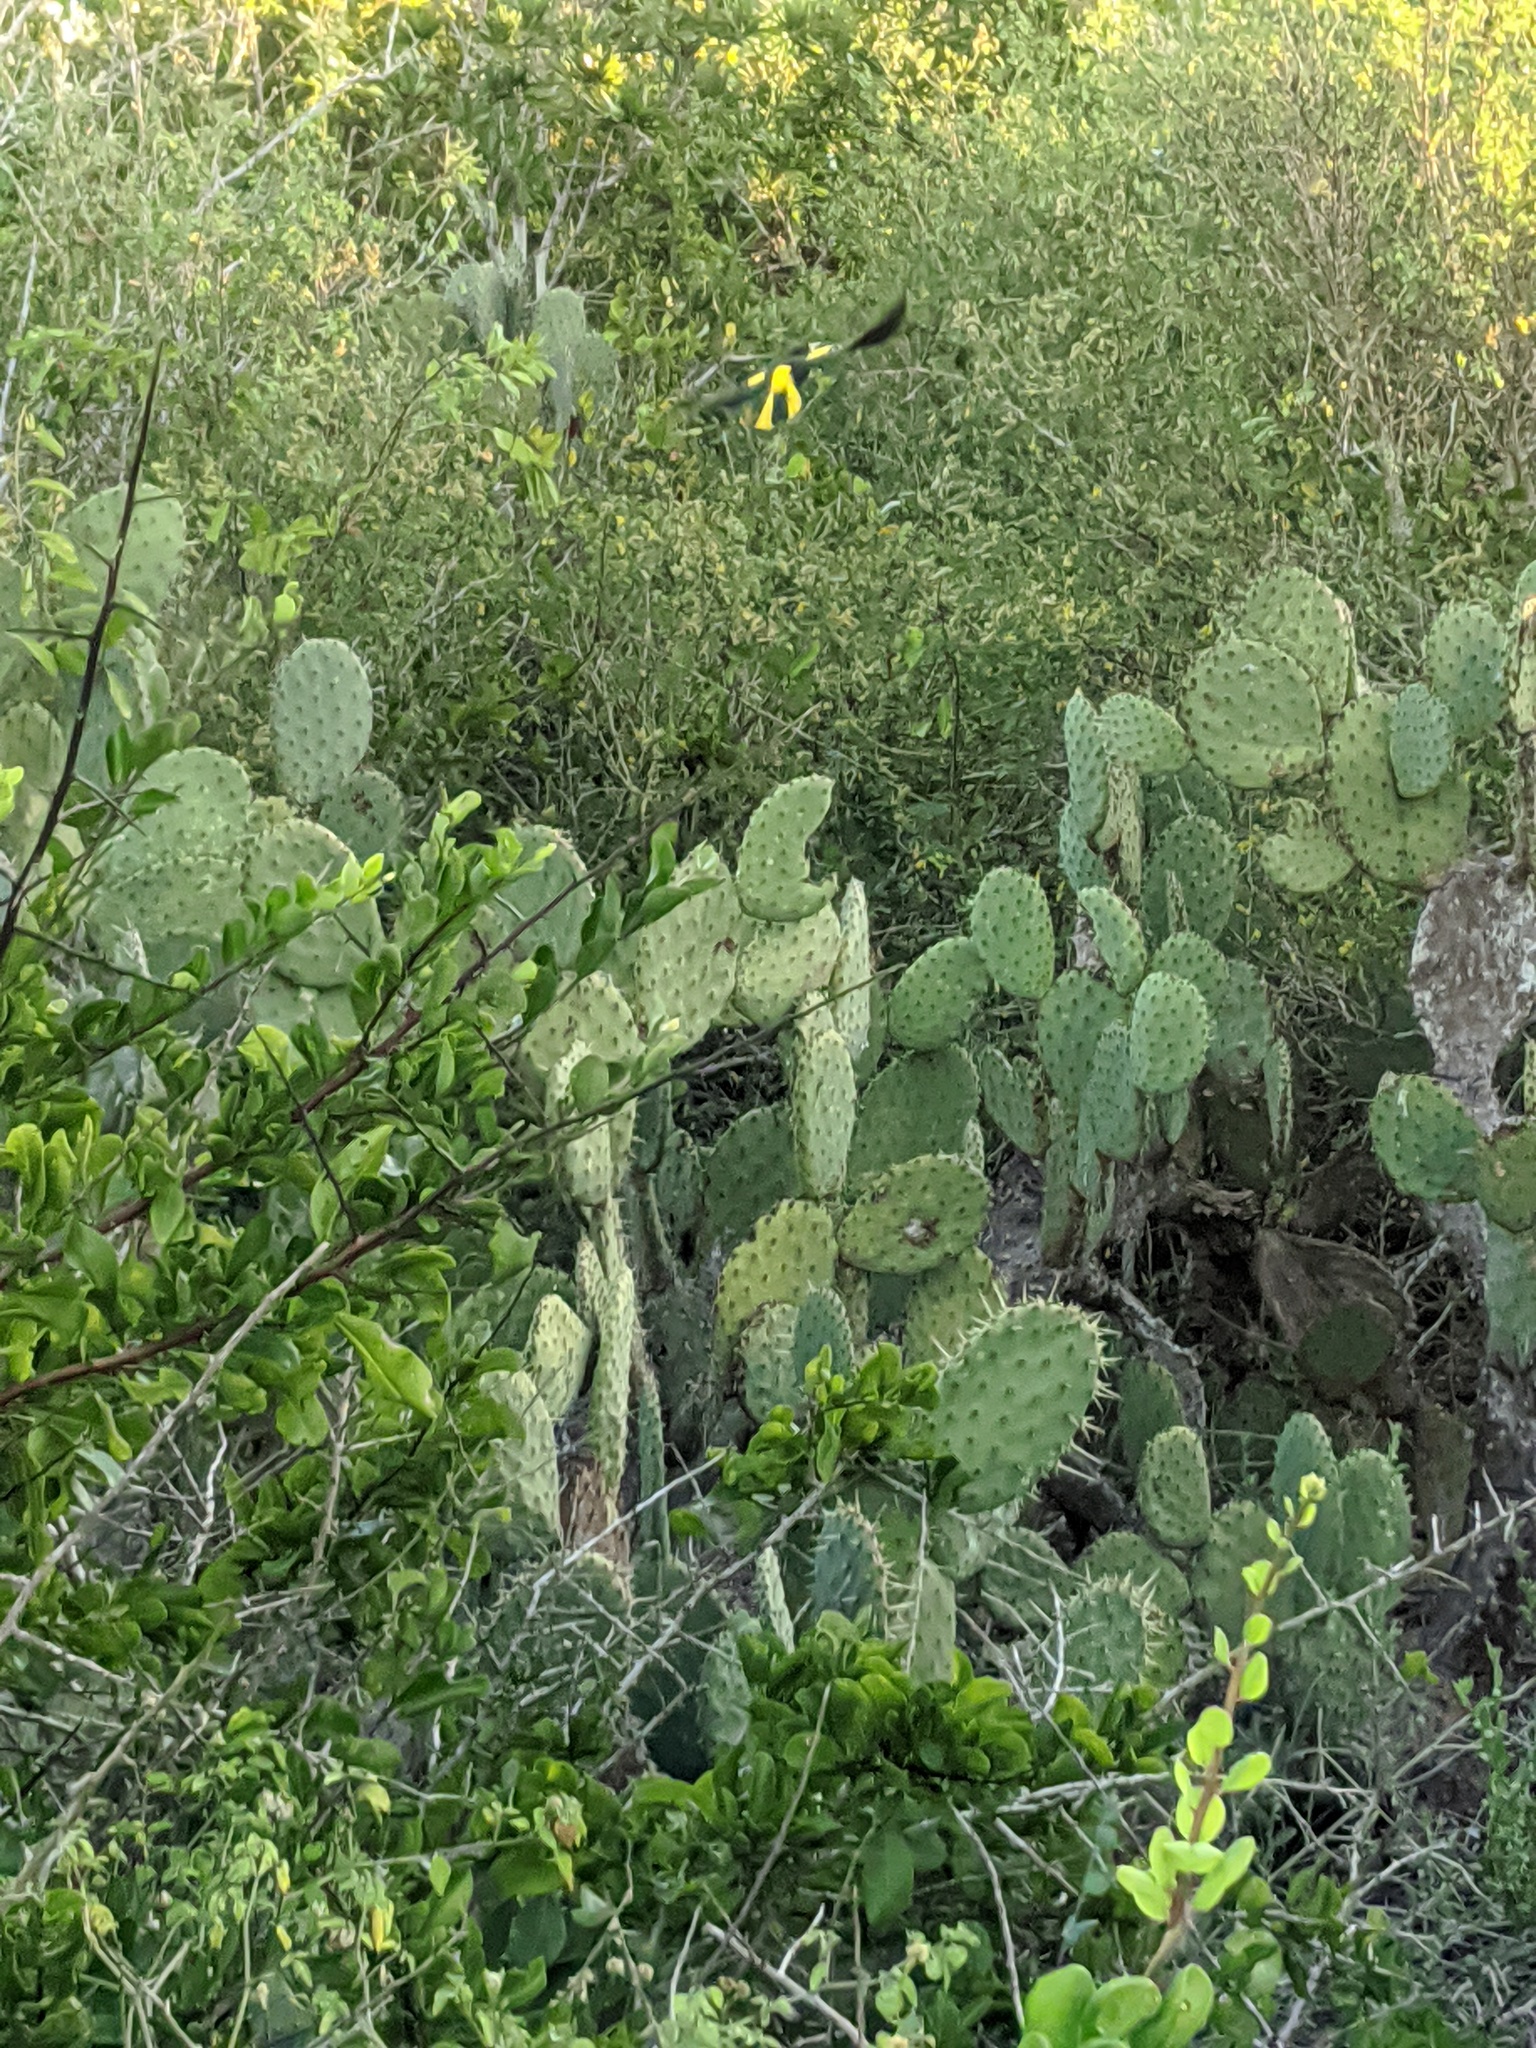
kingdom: Animalia
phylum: Chordata
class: Aves
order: Passeriformes
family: Icteridae
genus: Cacicus
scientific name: Cacicus melanicterus
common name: Yellow-winged cacique
